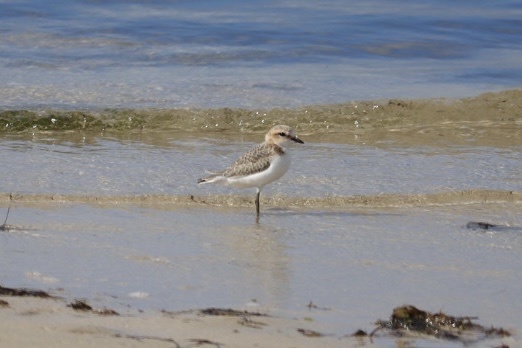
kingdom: Animalia
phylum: Chordata
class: Aves
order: Charadriiformes
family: Charadriidae
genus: Anarhynchus
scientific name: Anarhynchus
